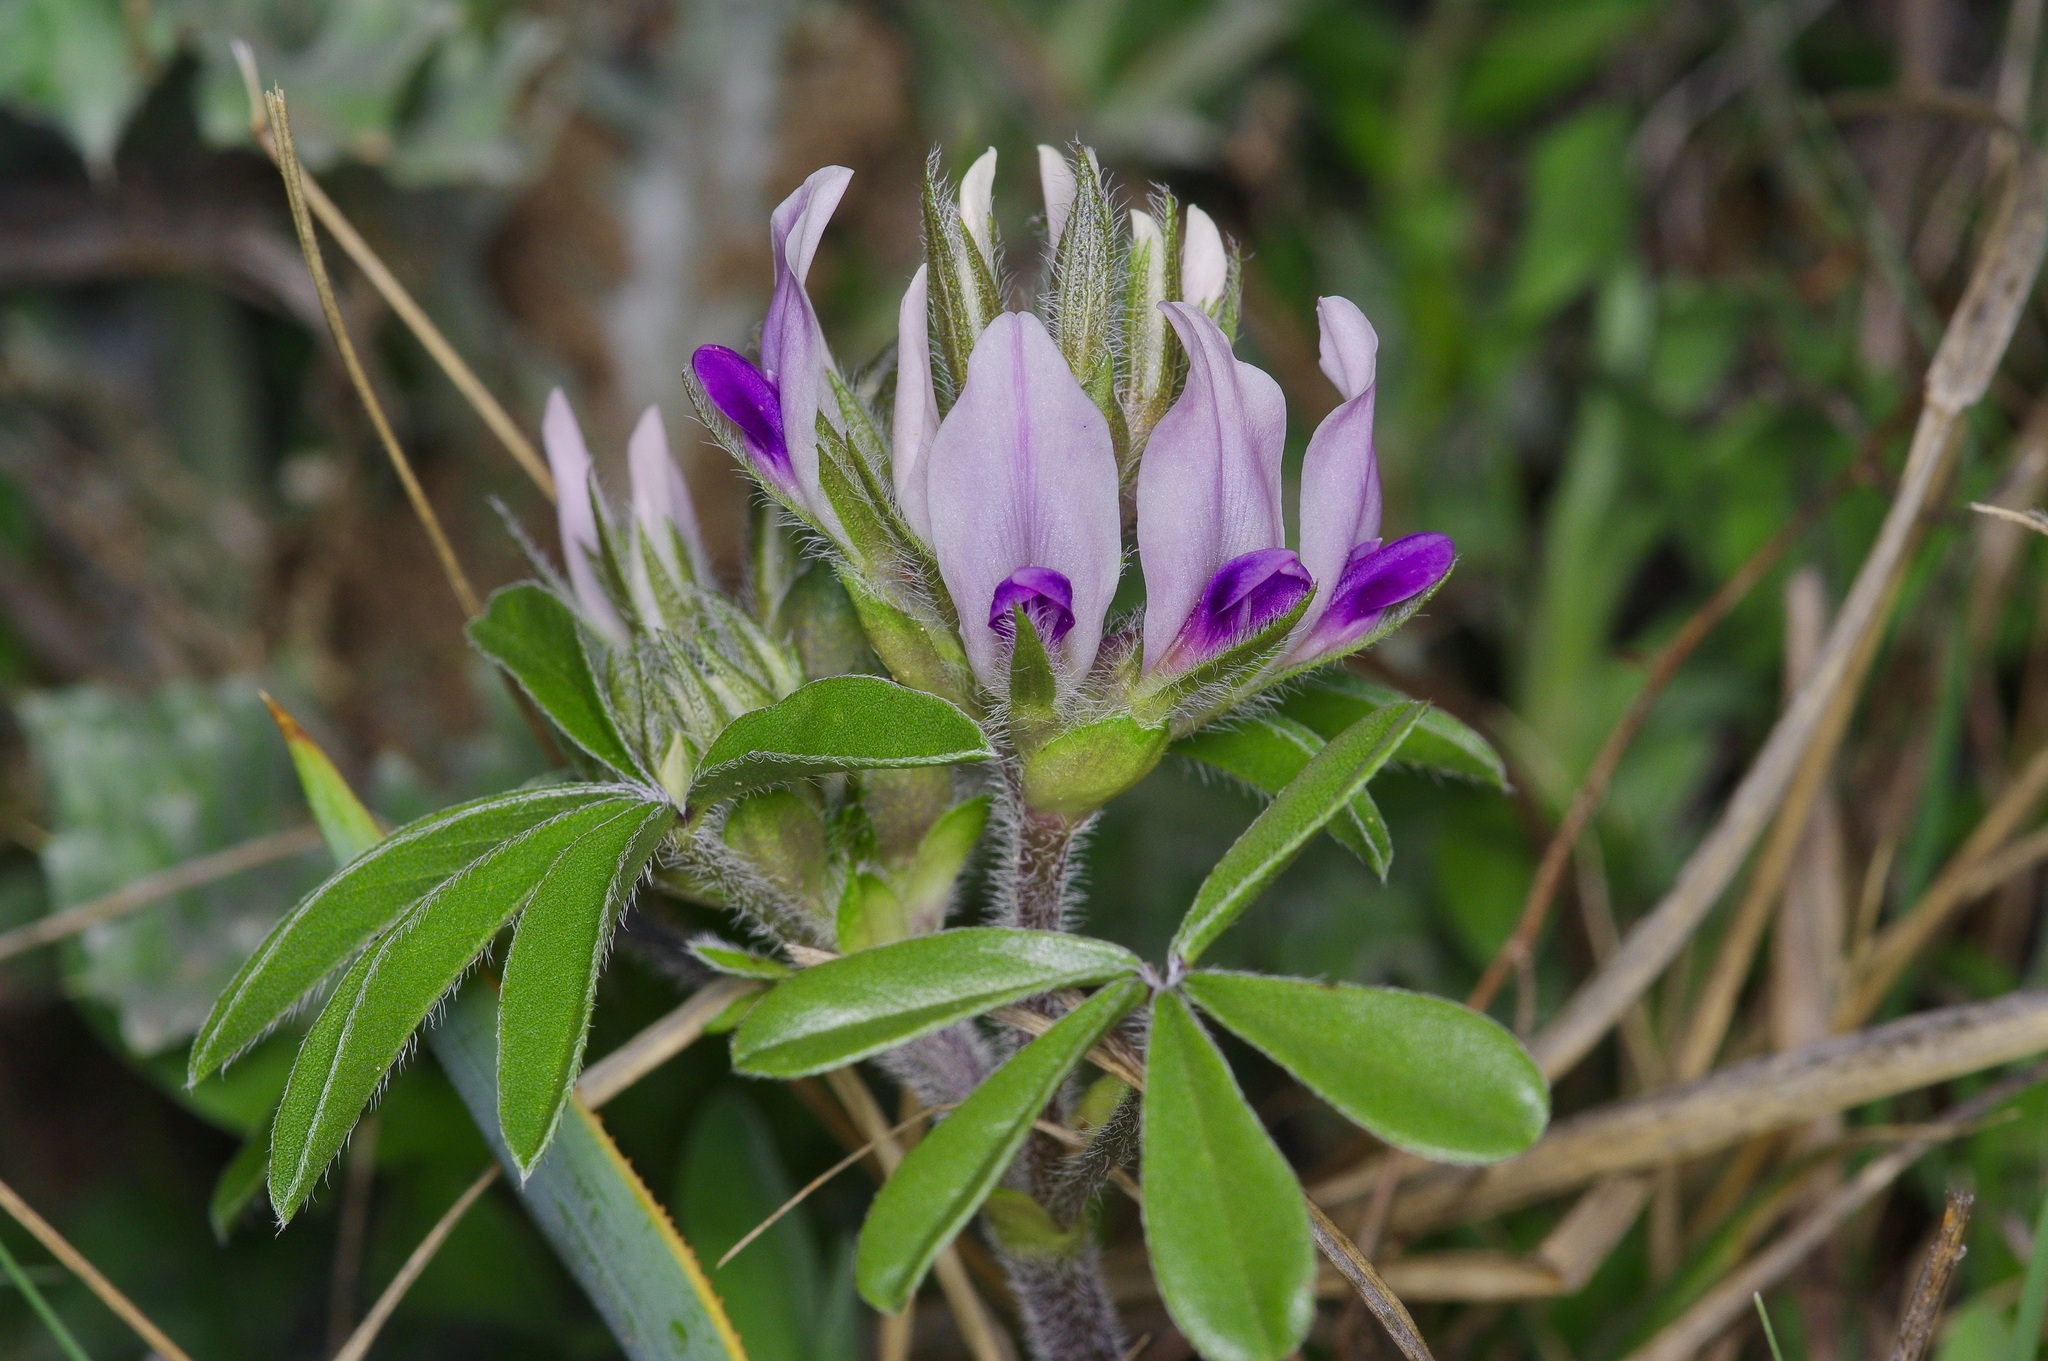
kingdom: Plantae
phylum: Tracheophyta
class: Magnoliopsida
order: Fabales
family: Fabaceae
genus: Pediomelum
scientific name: Pediomelum latestipulatum
